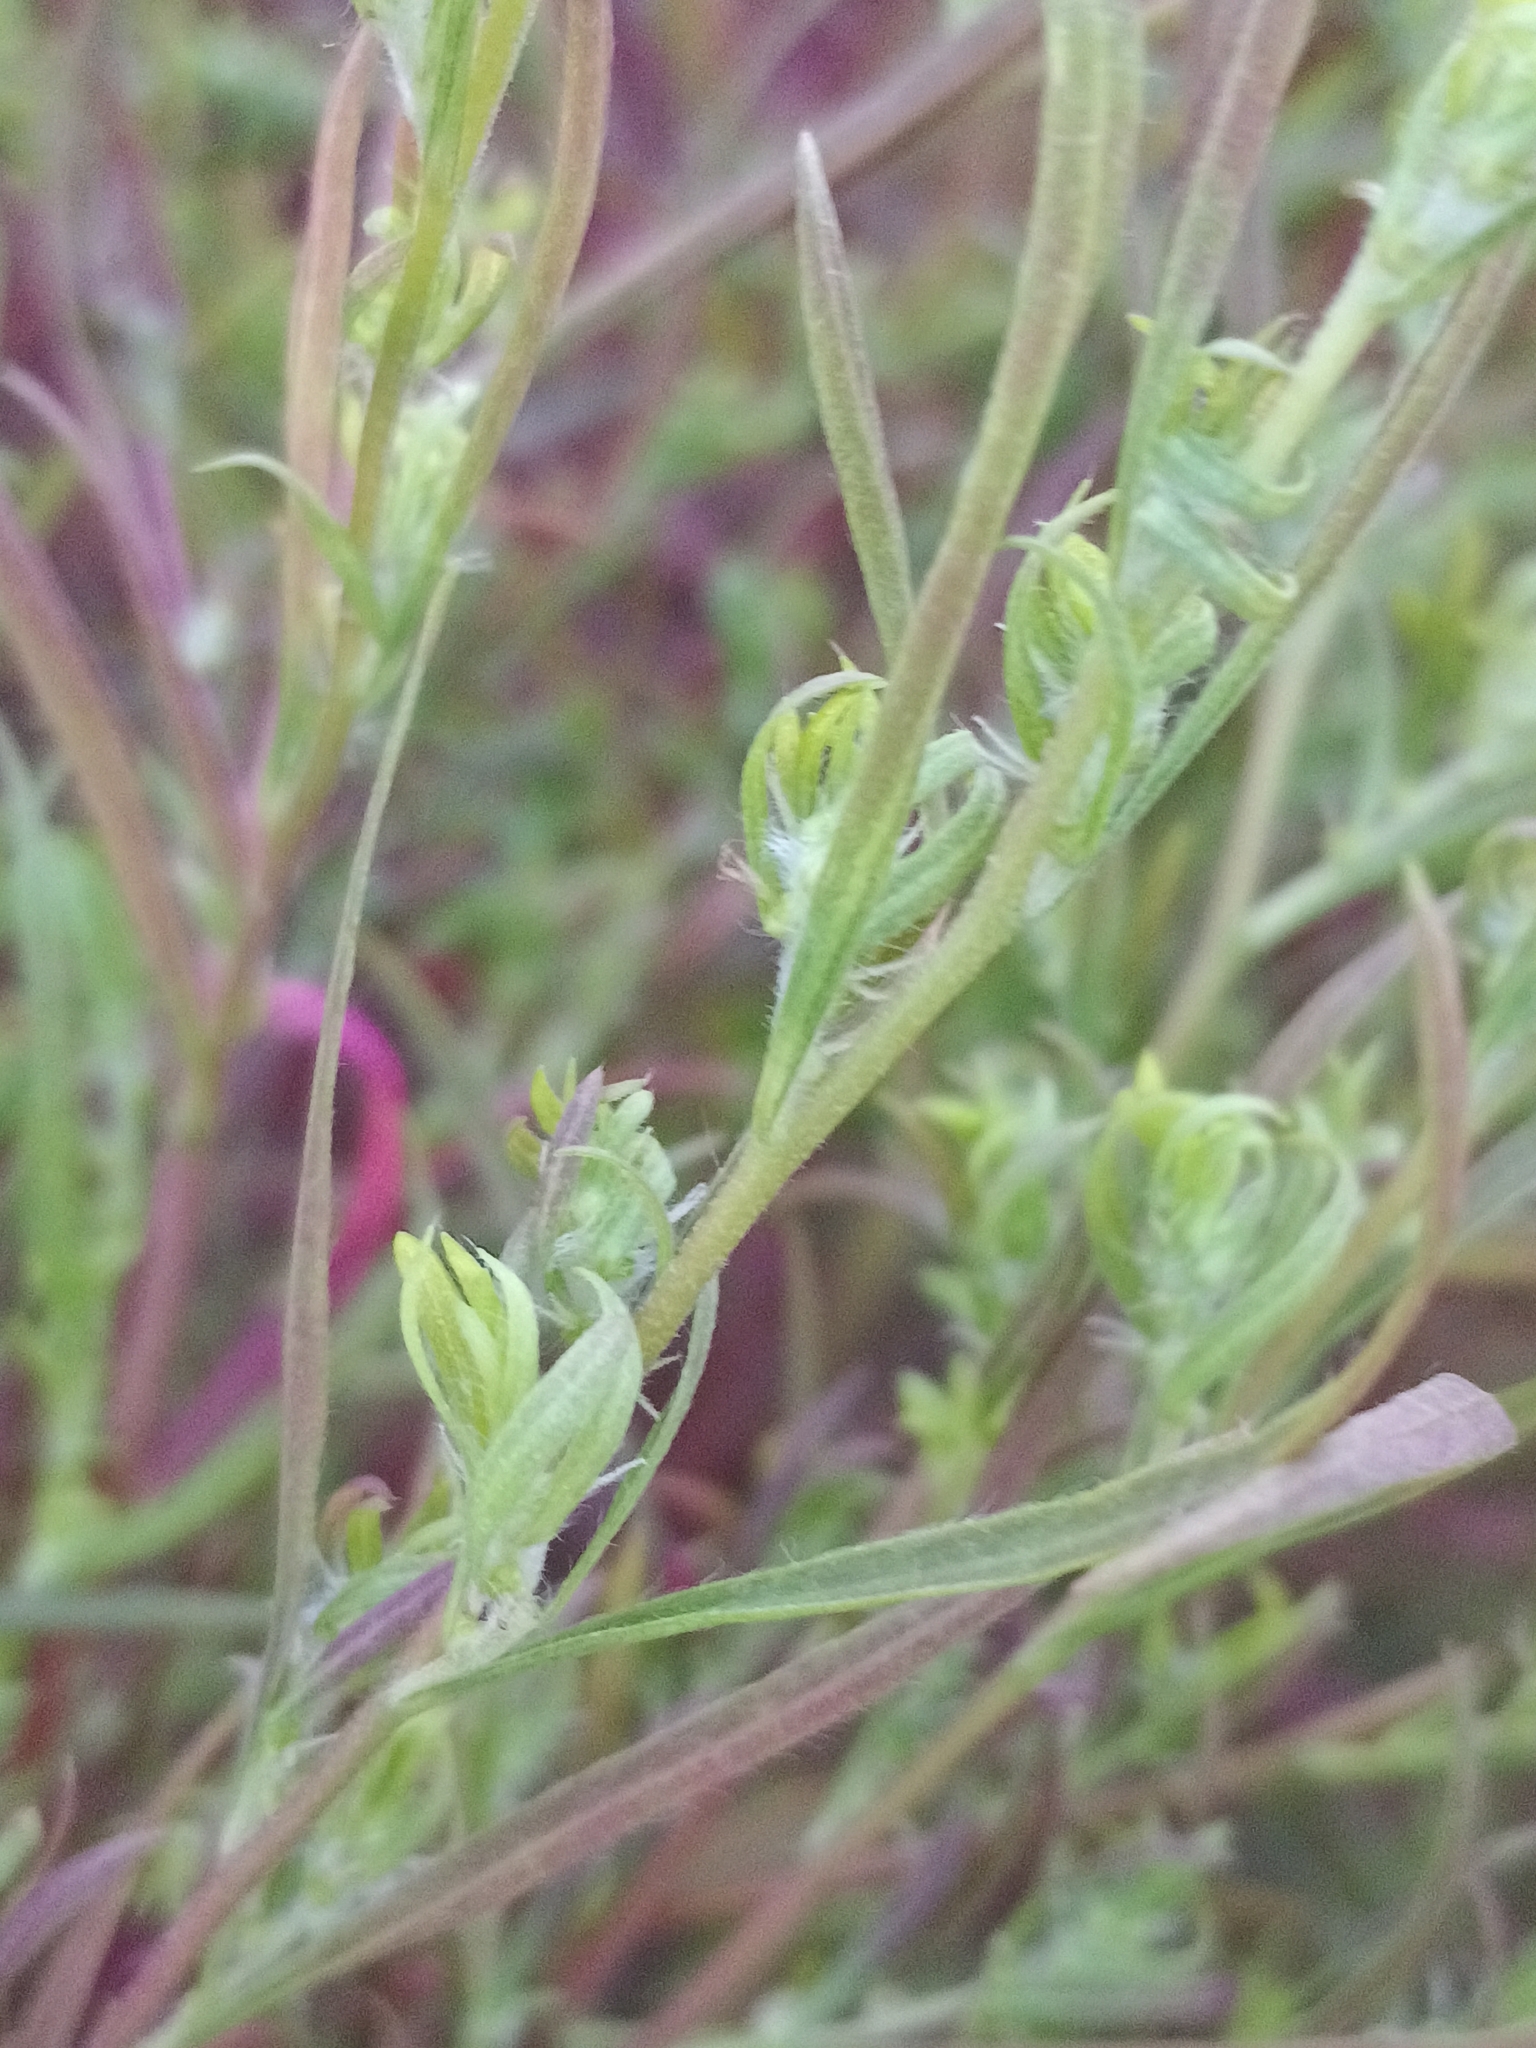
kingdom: Plantae
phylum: Tracheophyta
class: Magnoliopsida
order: Caryophyllales
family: Amaranthaceae
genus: Bassia
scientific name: Bassia scoparia
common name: Belvedere
